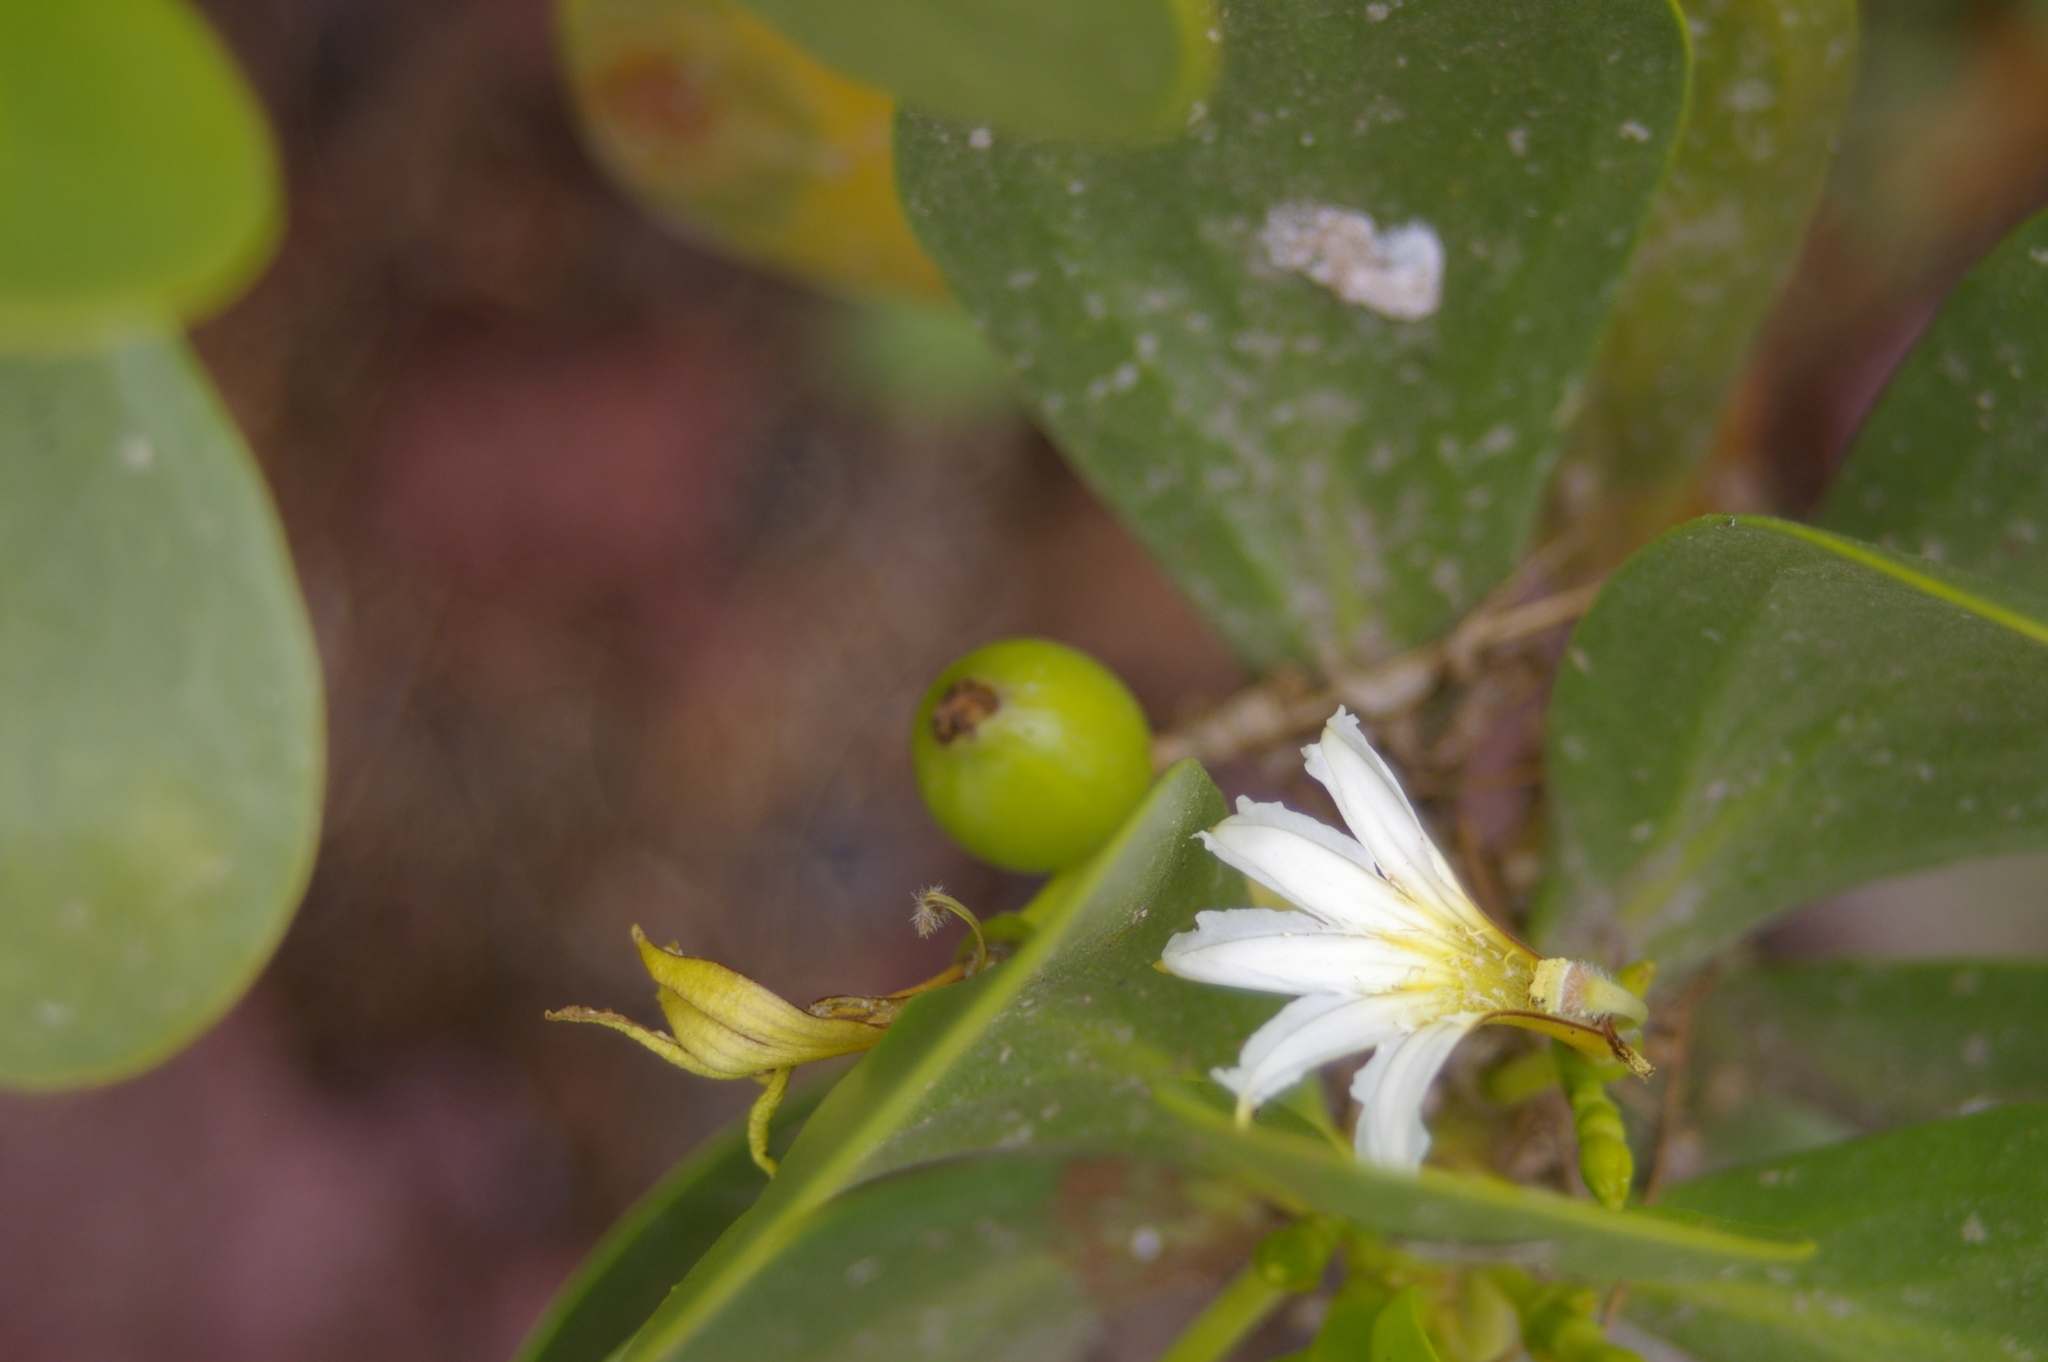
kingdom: Plantae
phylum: Tracheophyta
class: Magnoliopsida
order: Asterales
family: Goodeniaceae
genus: Scaevola
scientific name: Scaevola plumieri
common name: Gull feed
